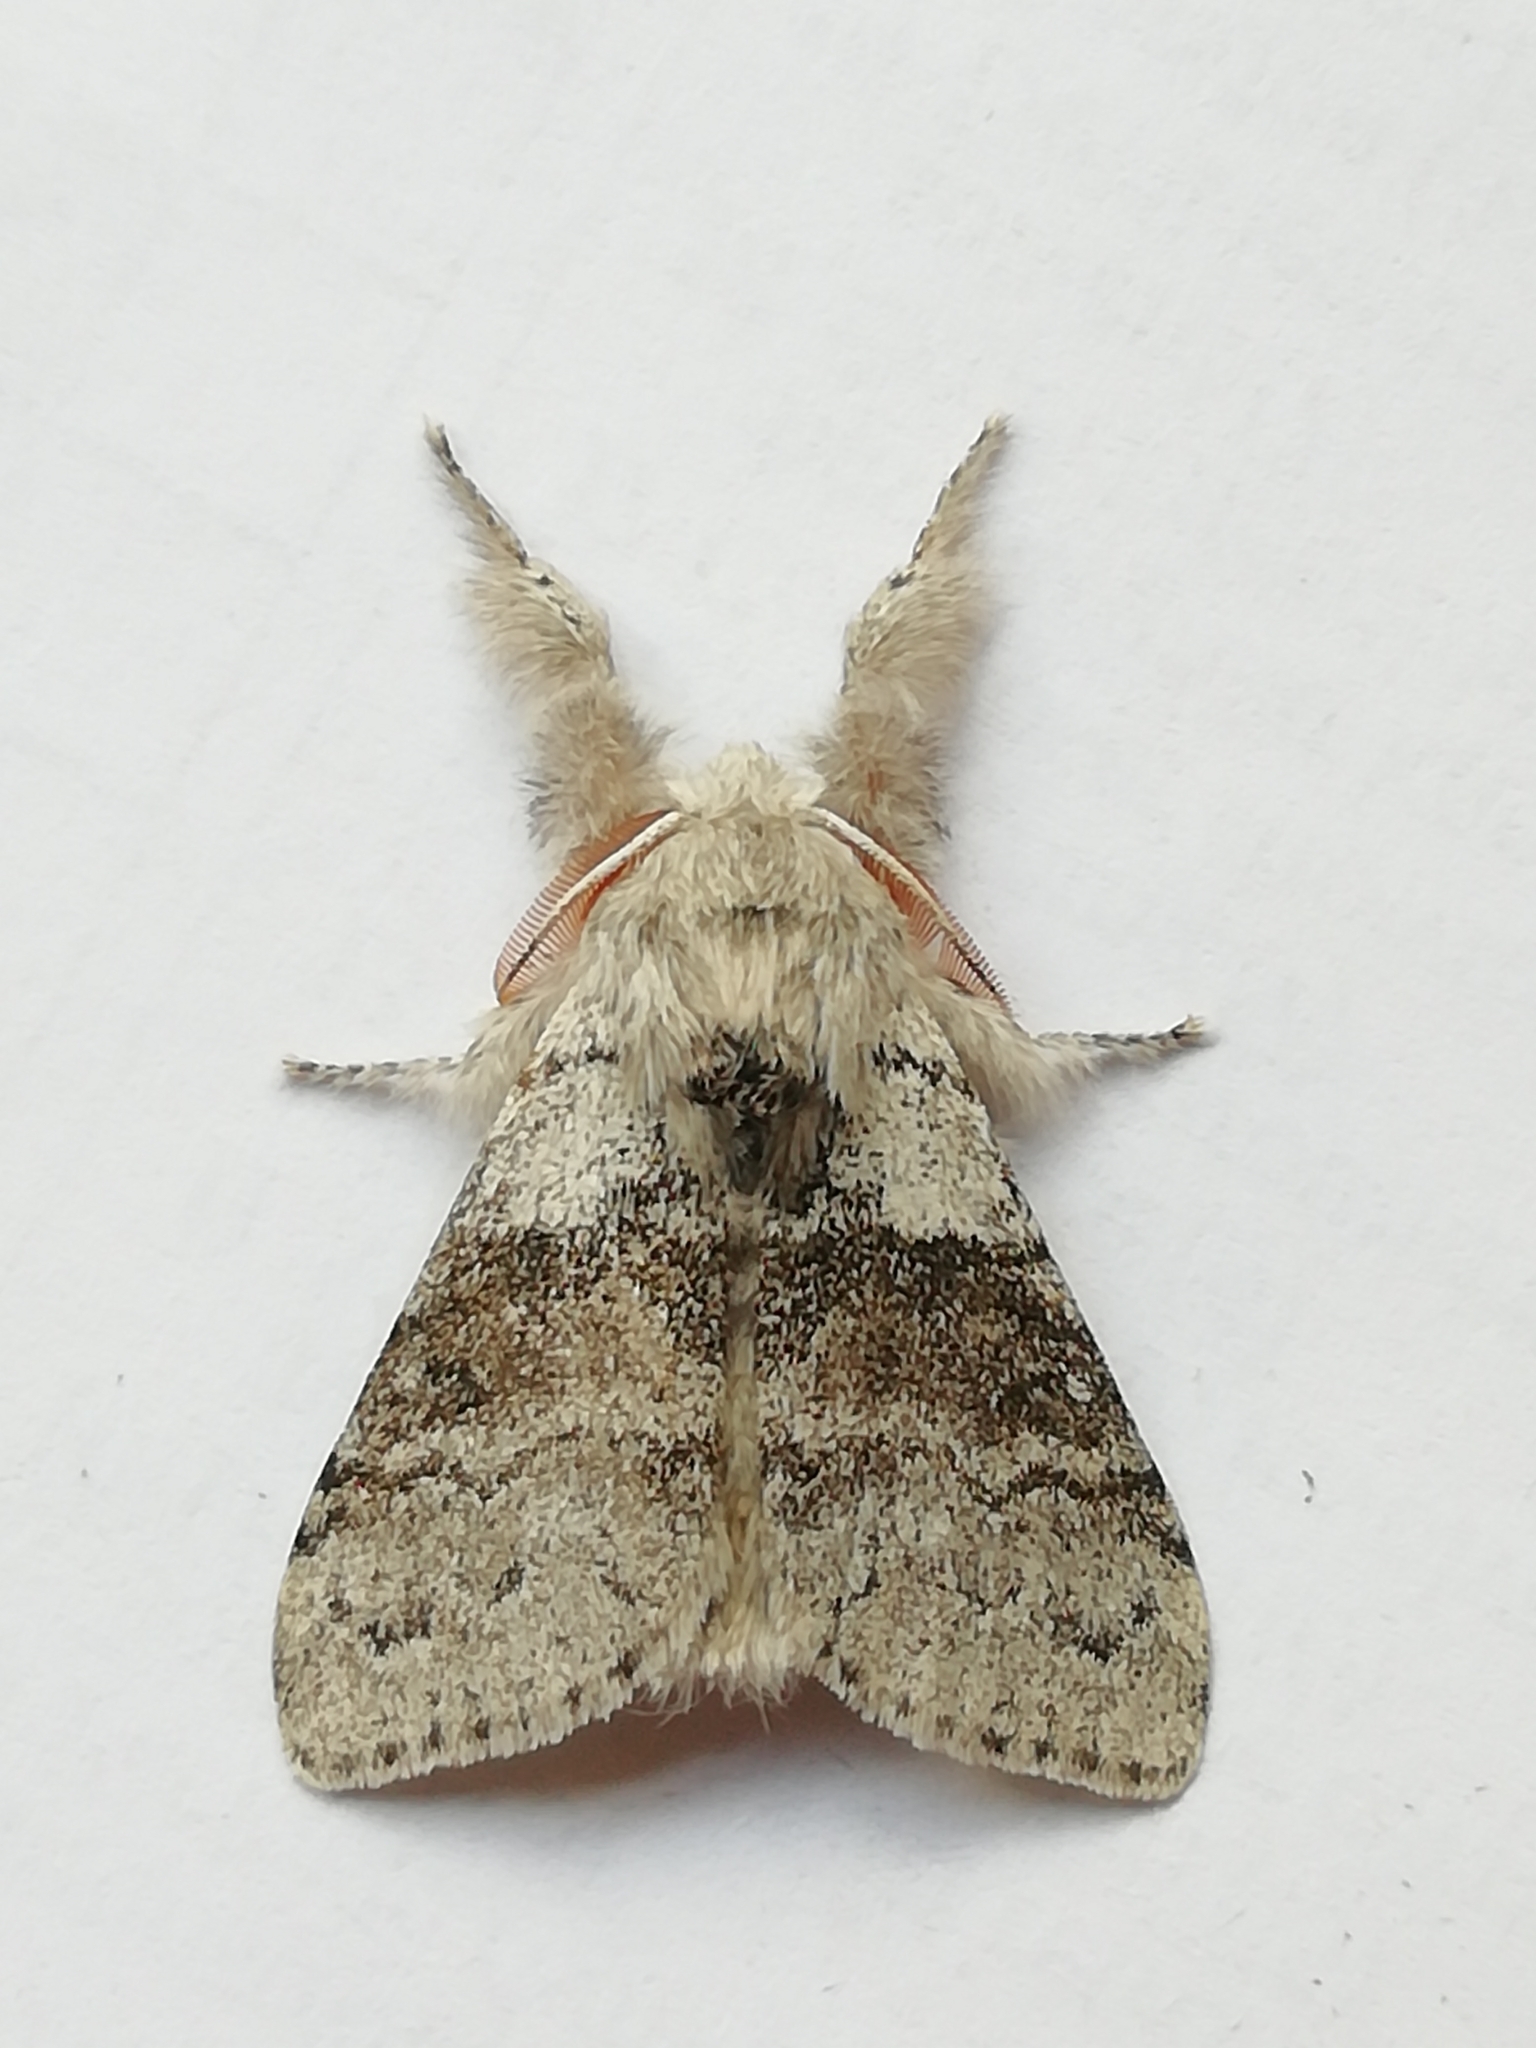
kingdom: Animalia
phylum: Arthropoda
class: Insecta
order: Lepidoptera
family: Erebidae
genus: Calliteara
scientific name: Calliteara pudibunda
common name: Pale tussock
